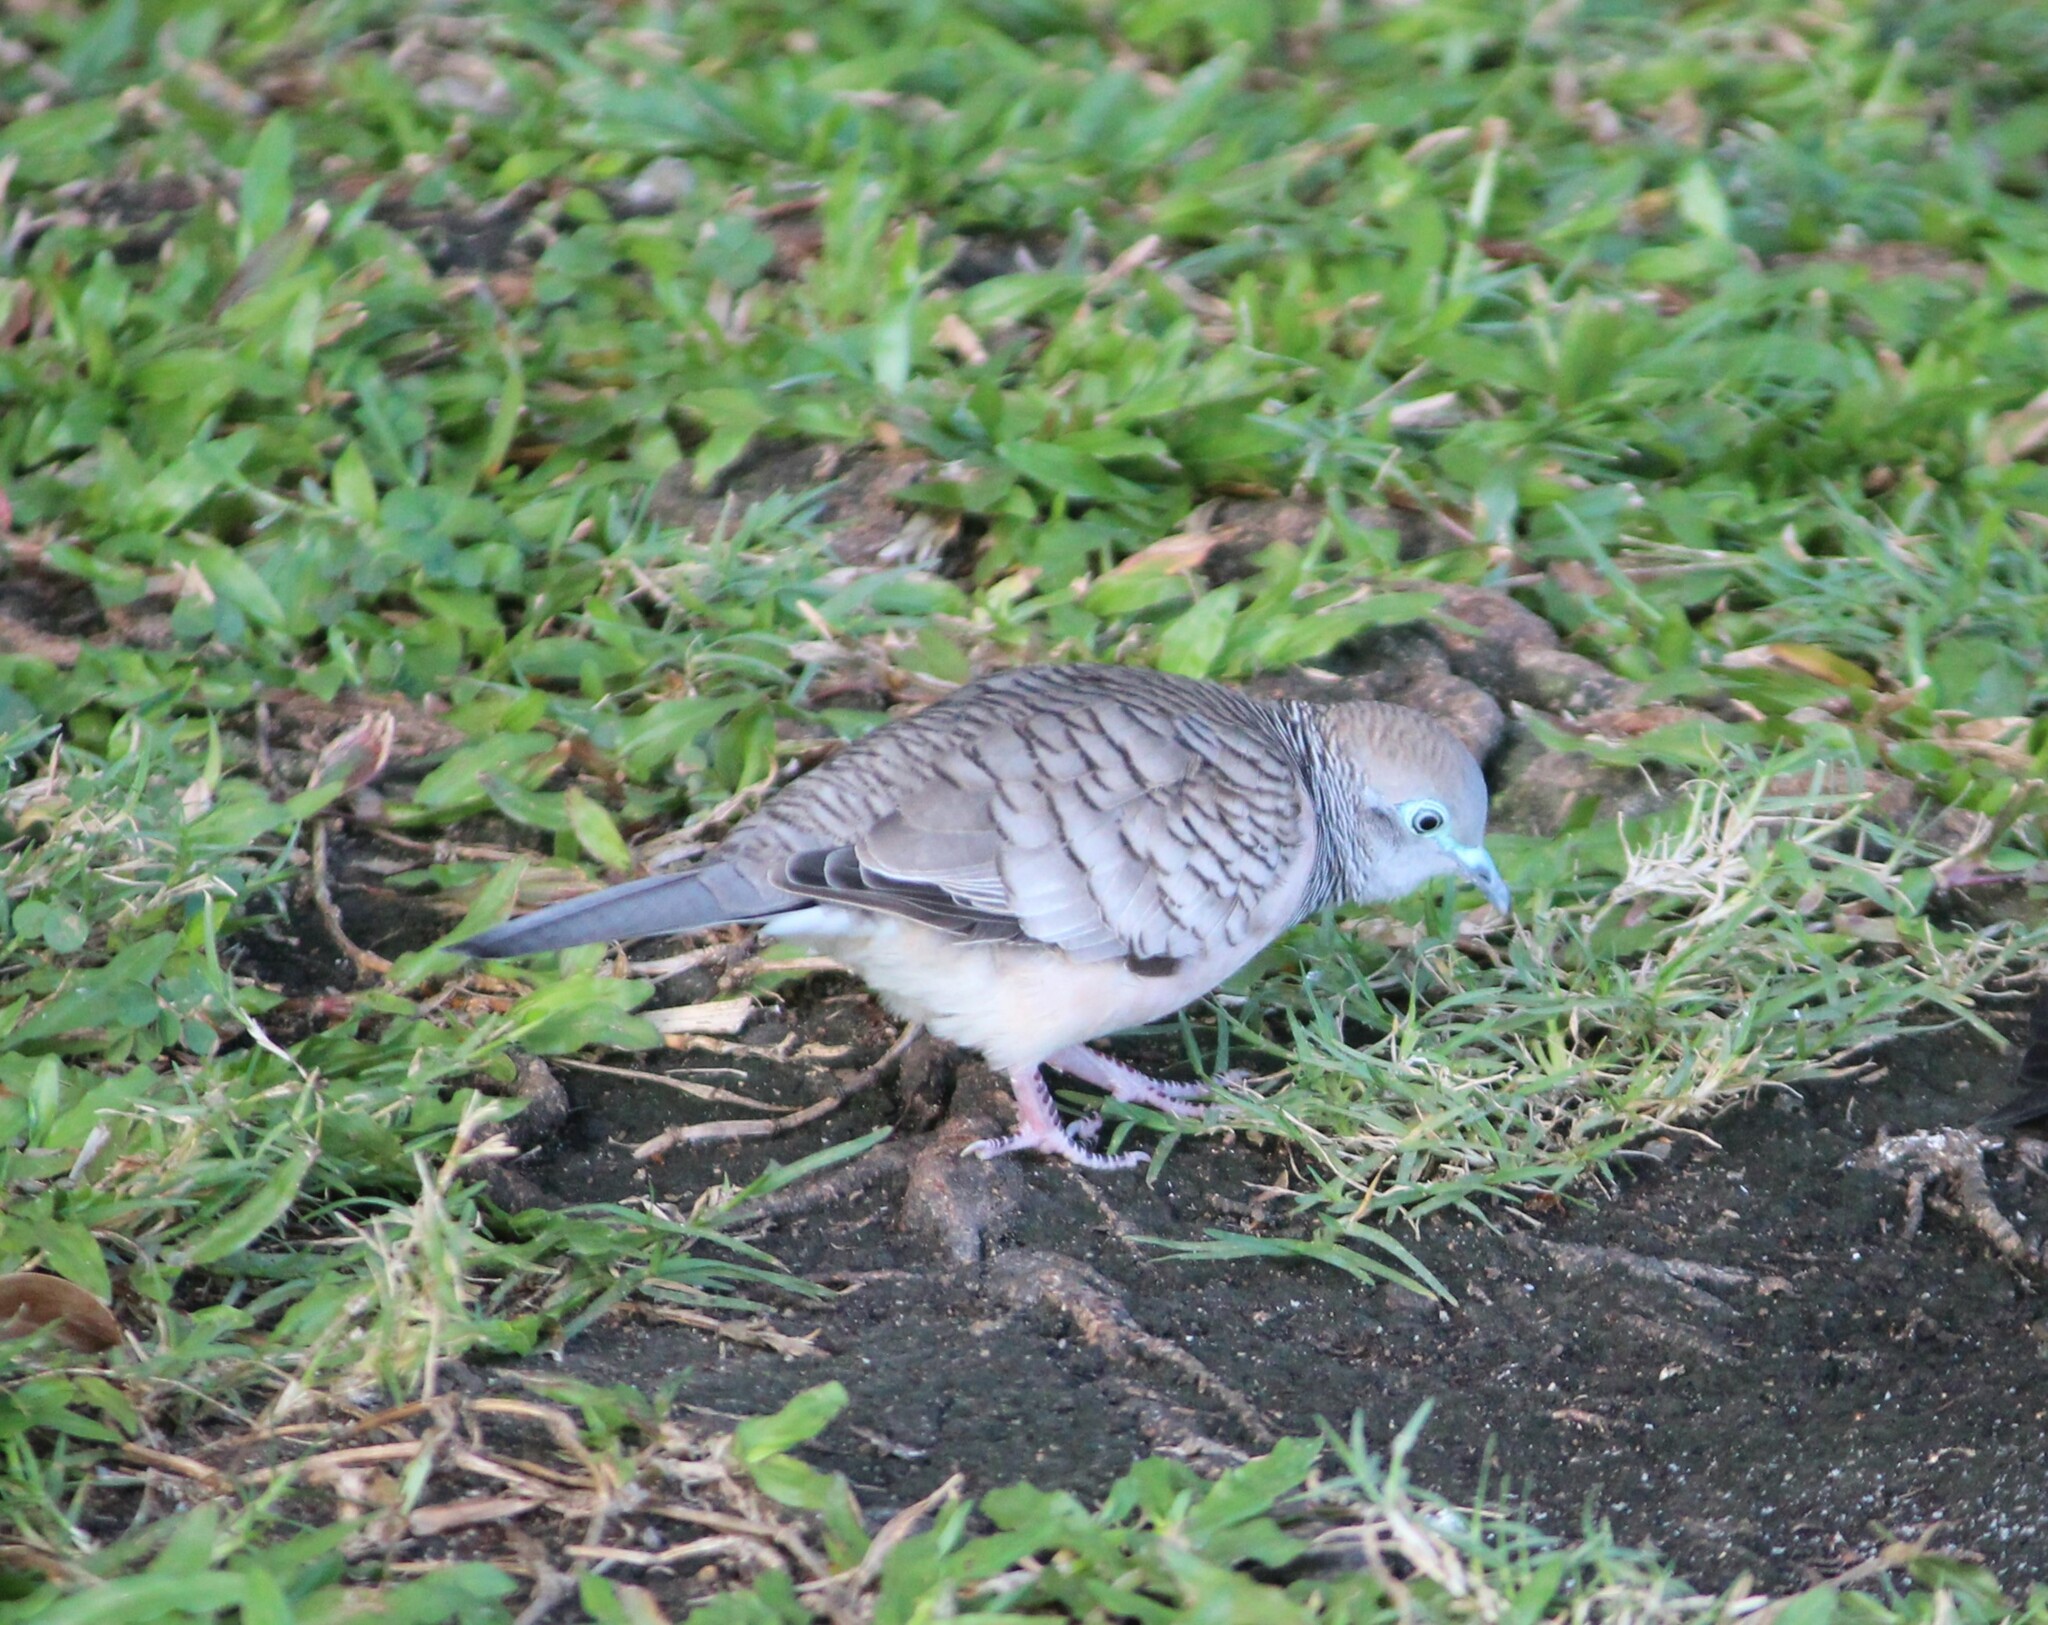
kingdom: Animalia
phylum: Chordata
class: Aves
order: Columbiformes
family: Columbidae
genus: Geopelia
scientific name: Geopelia placida
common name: Peaceful dove
